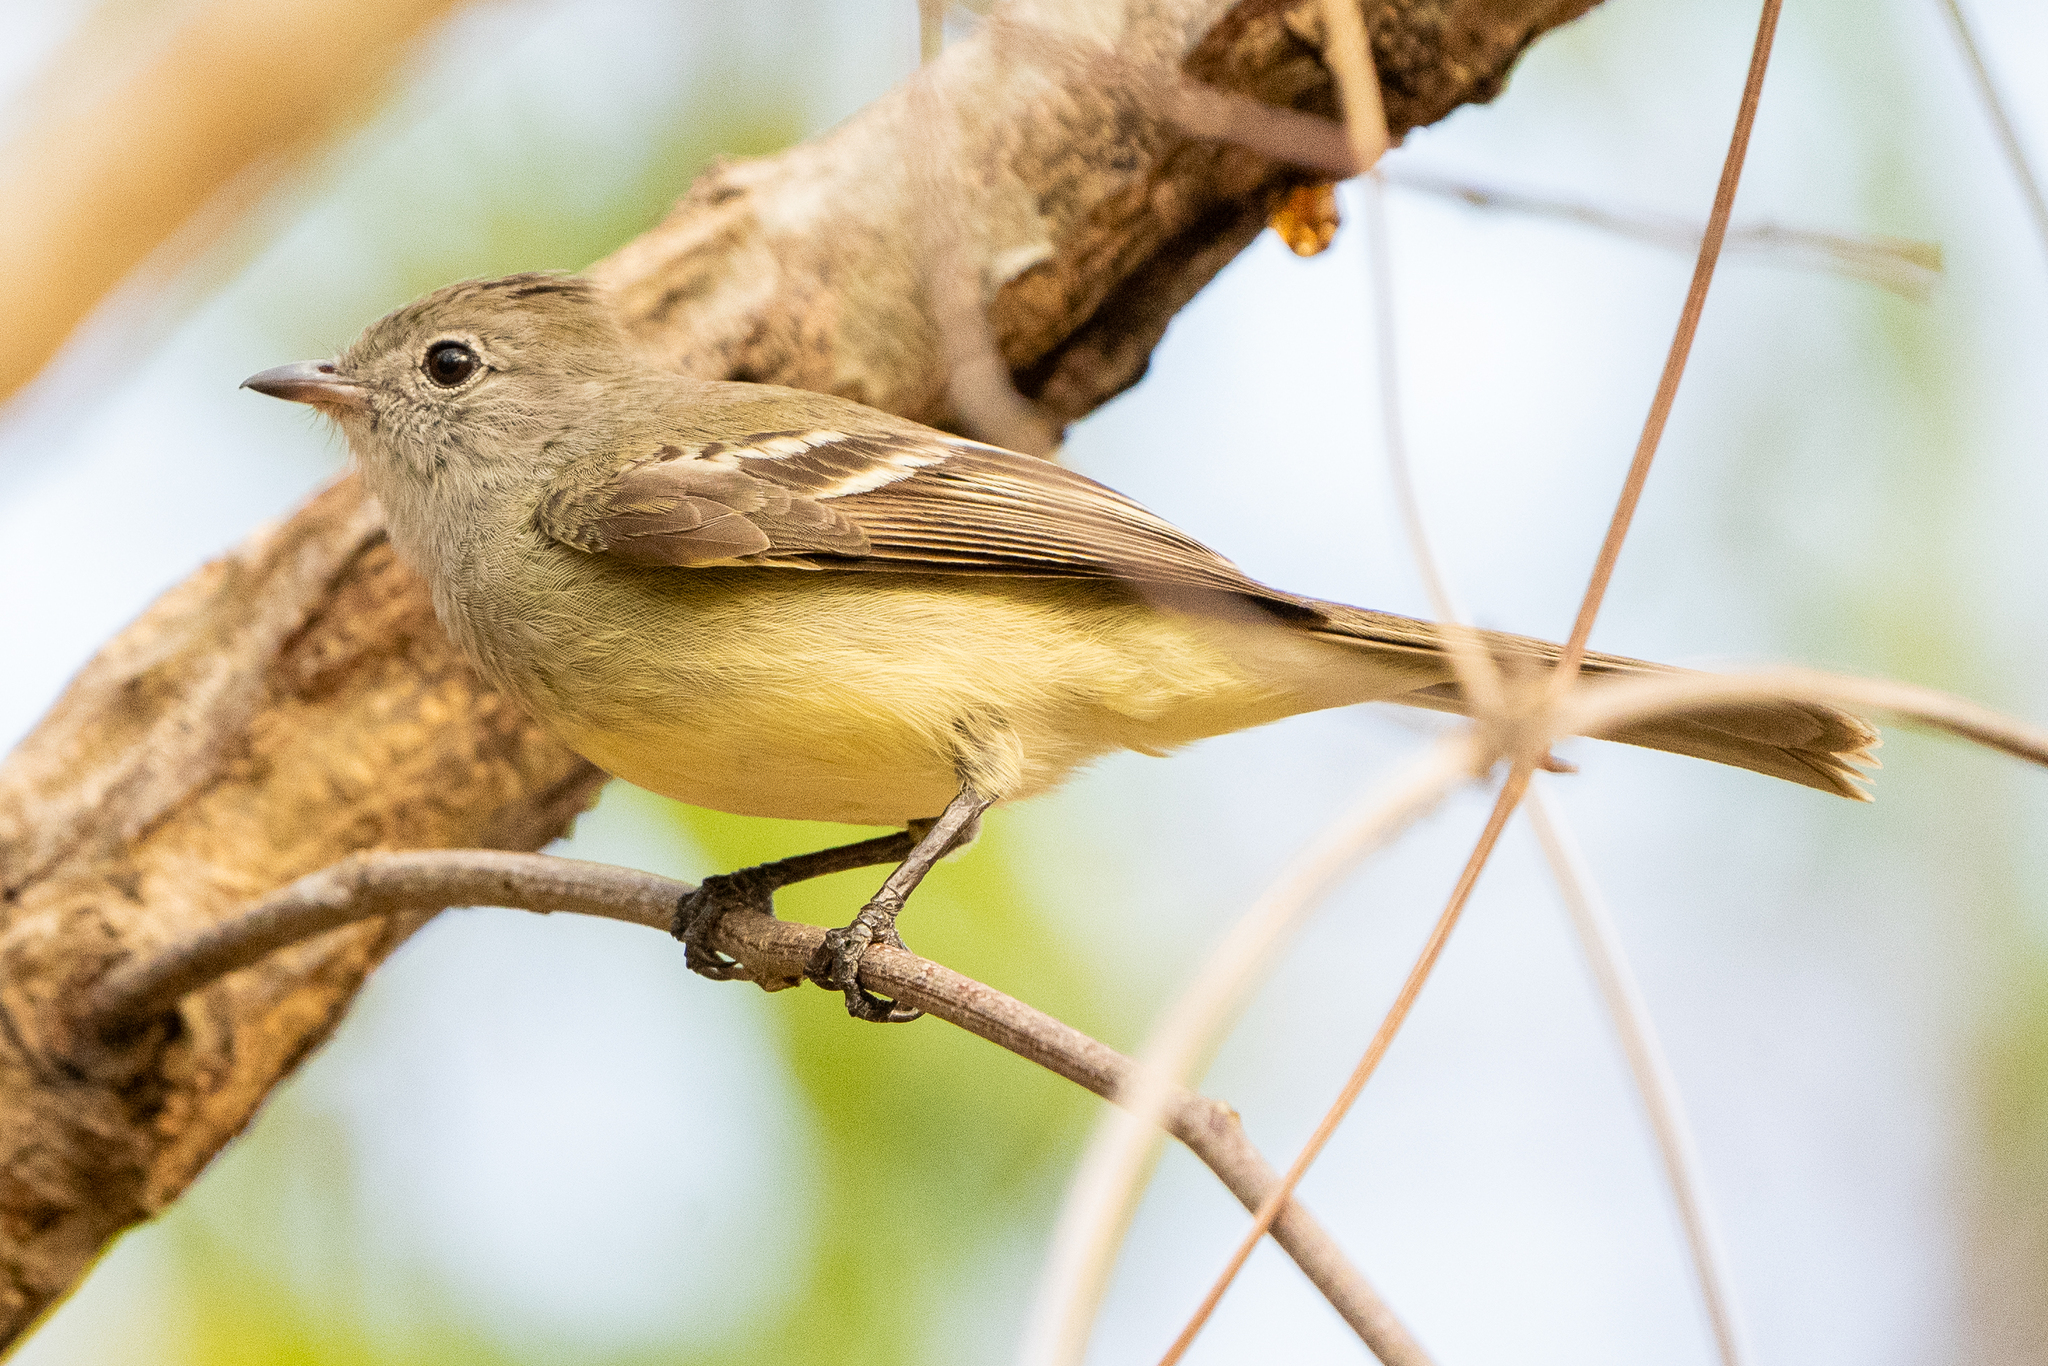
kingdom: Animalia
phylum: Chordata
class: Aves
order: Passeriformes
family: Tyrannidae
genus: Elaenia
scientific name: Elaenia flavogaster
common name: Yellow-bellied elaenia
